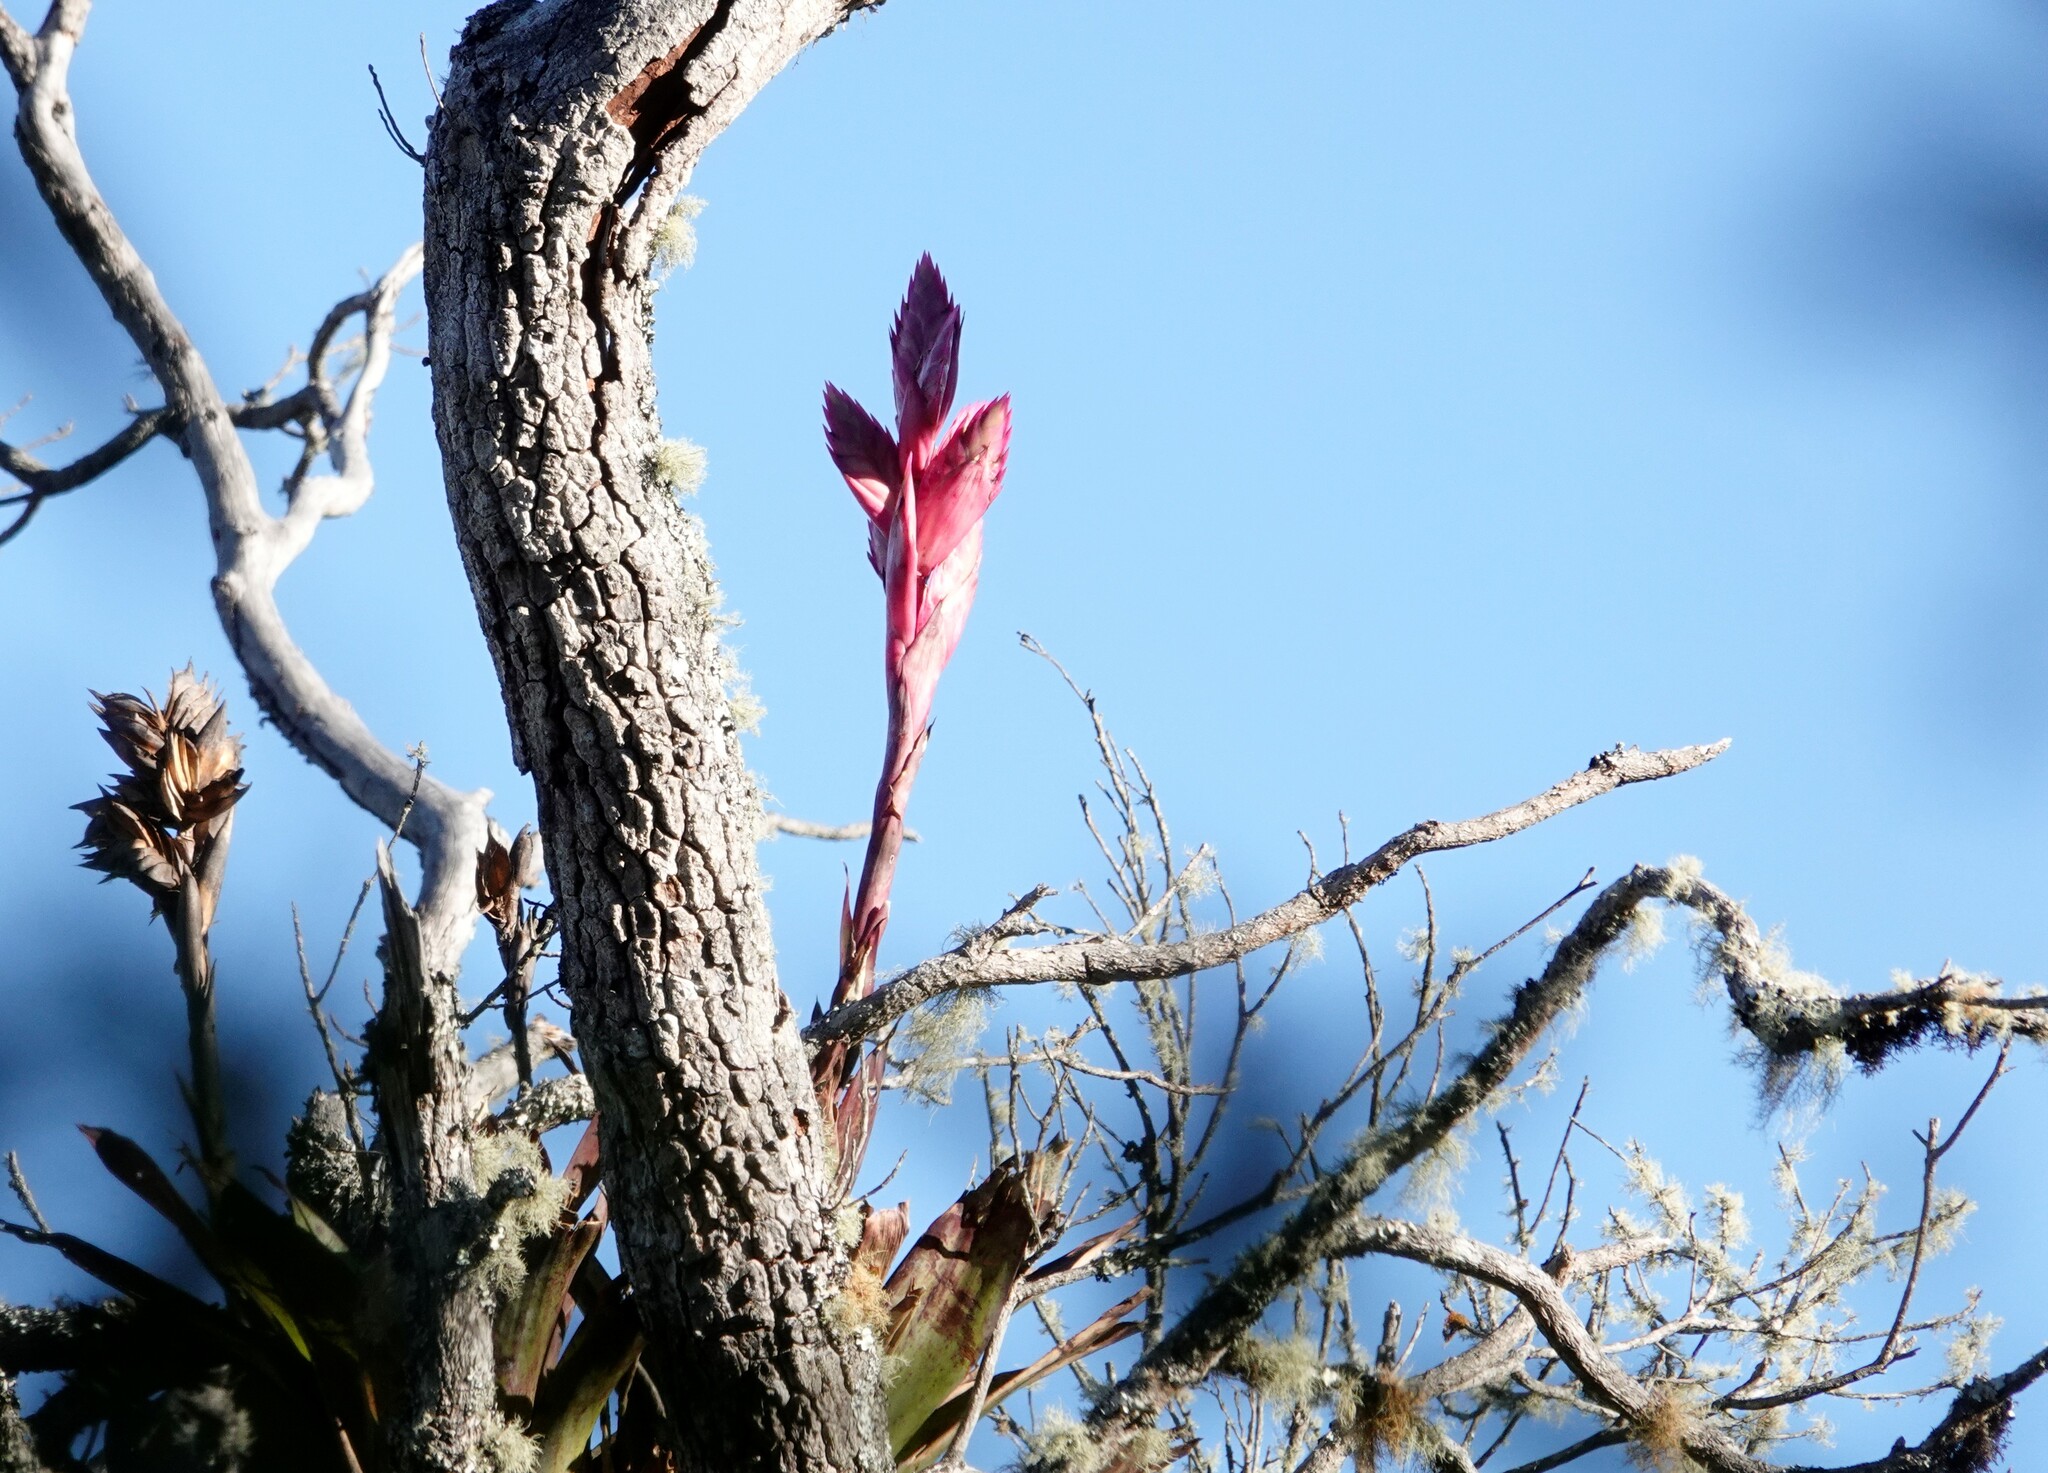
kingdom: Plantae
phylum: Tracheophyta
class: Liliopsida
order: Poales
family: Bromeliaceae
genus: Tillandsia
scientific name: Tillandsia sigmoidea
